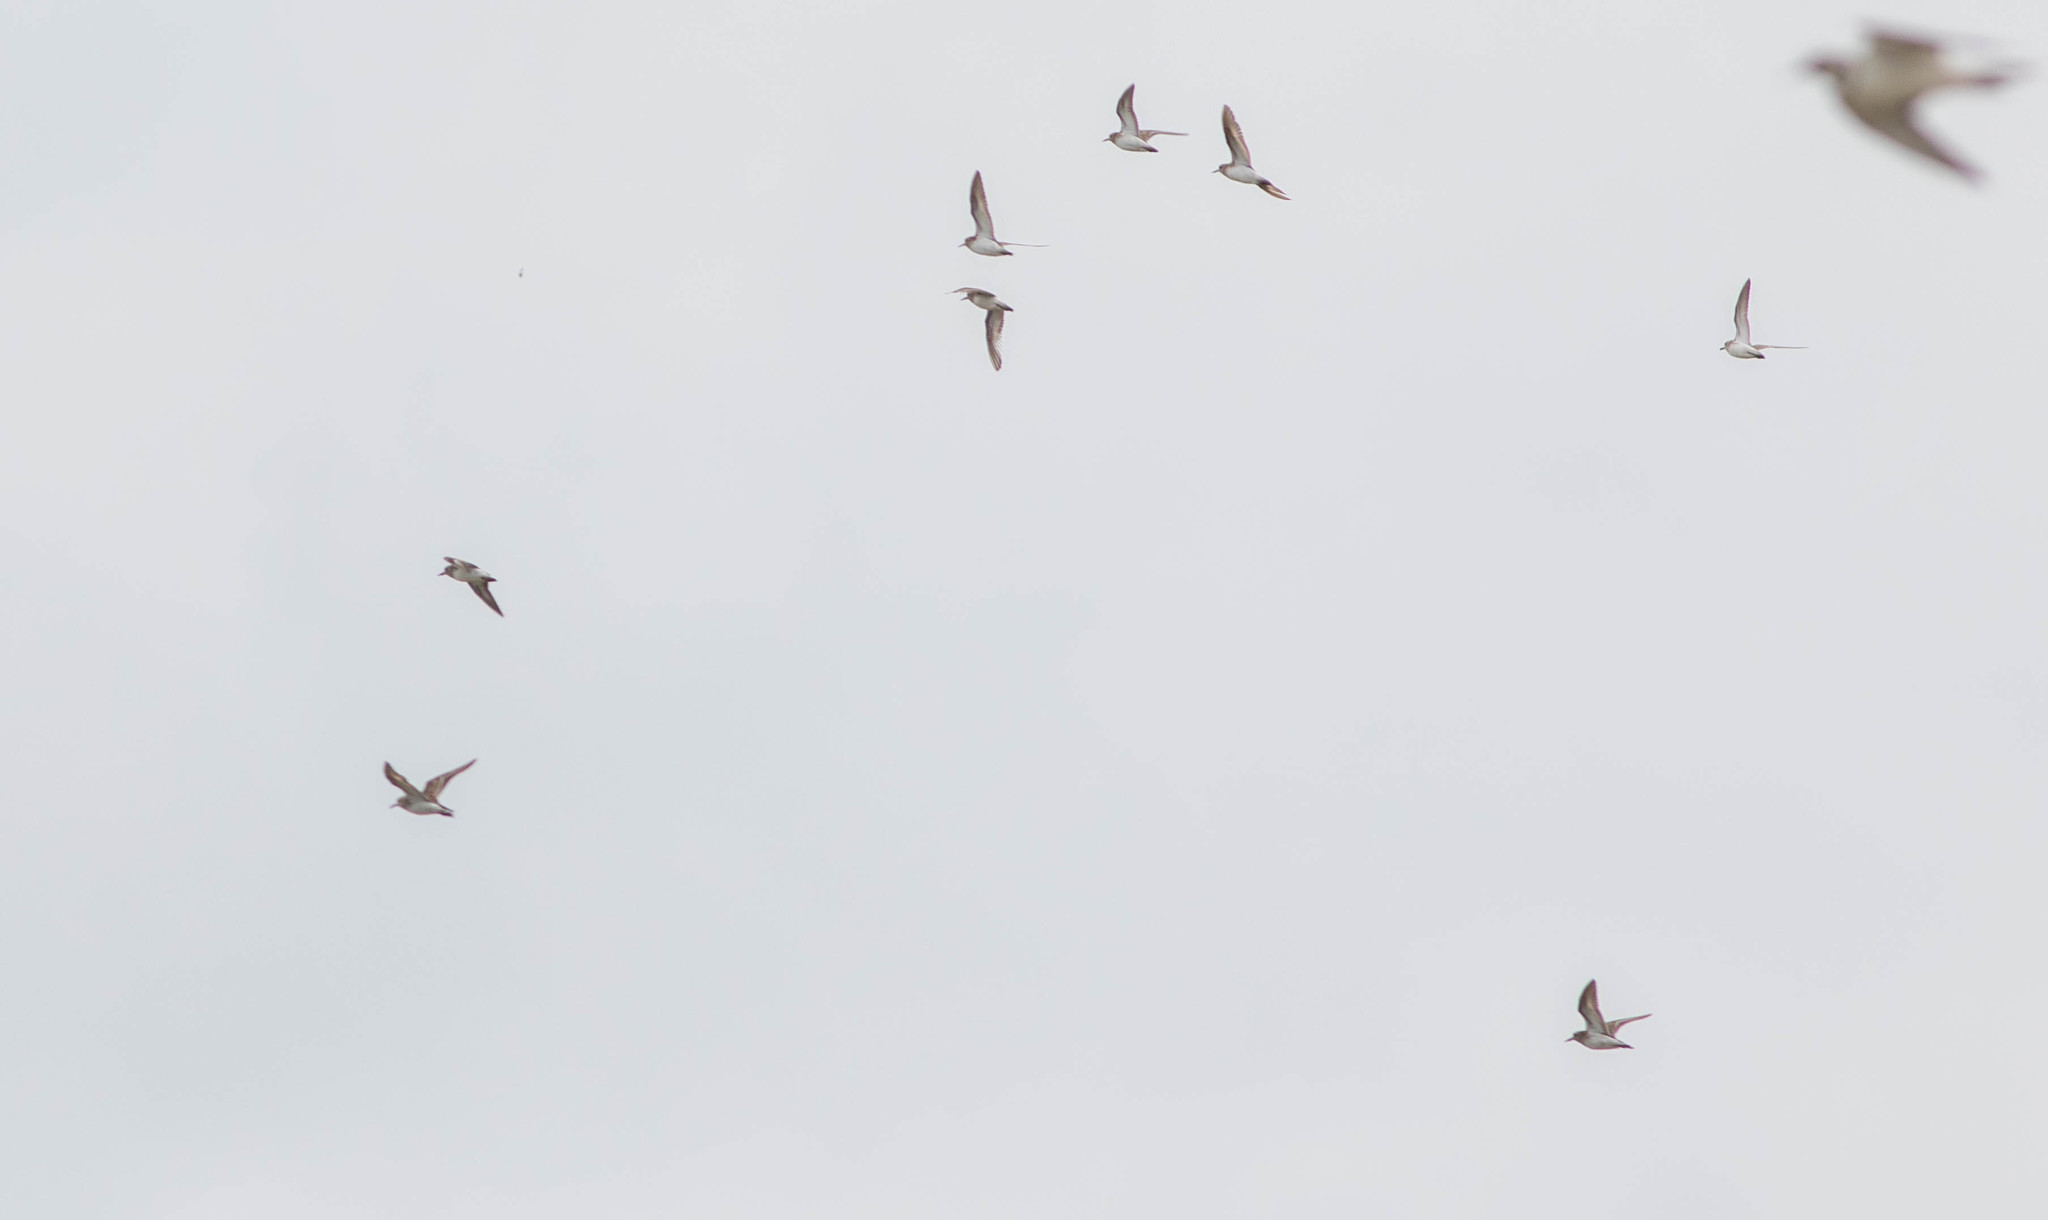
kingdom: Animalia
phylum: Chordata
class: Aves
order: Charadriiformes
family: Scolopacidae
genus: Calidris
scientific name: Calidris minutilla
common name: Least sandpiper
